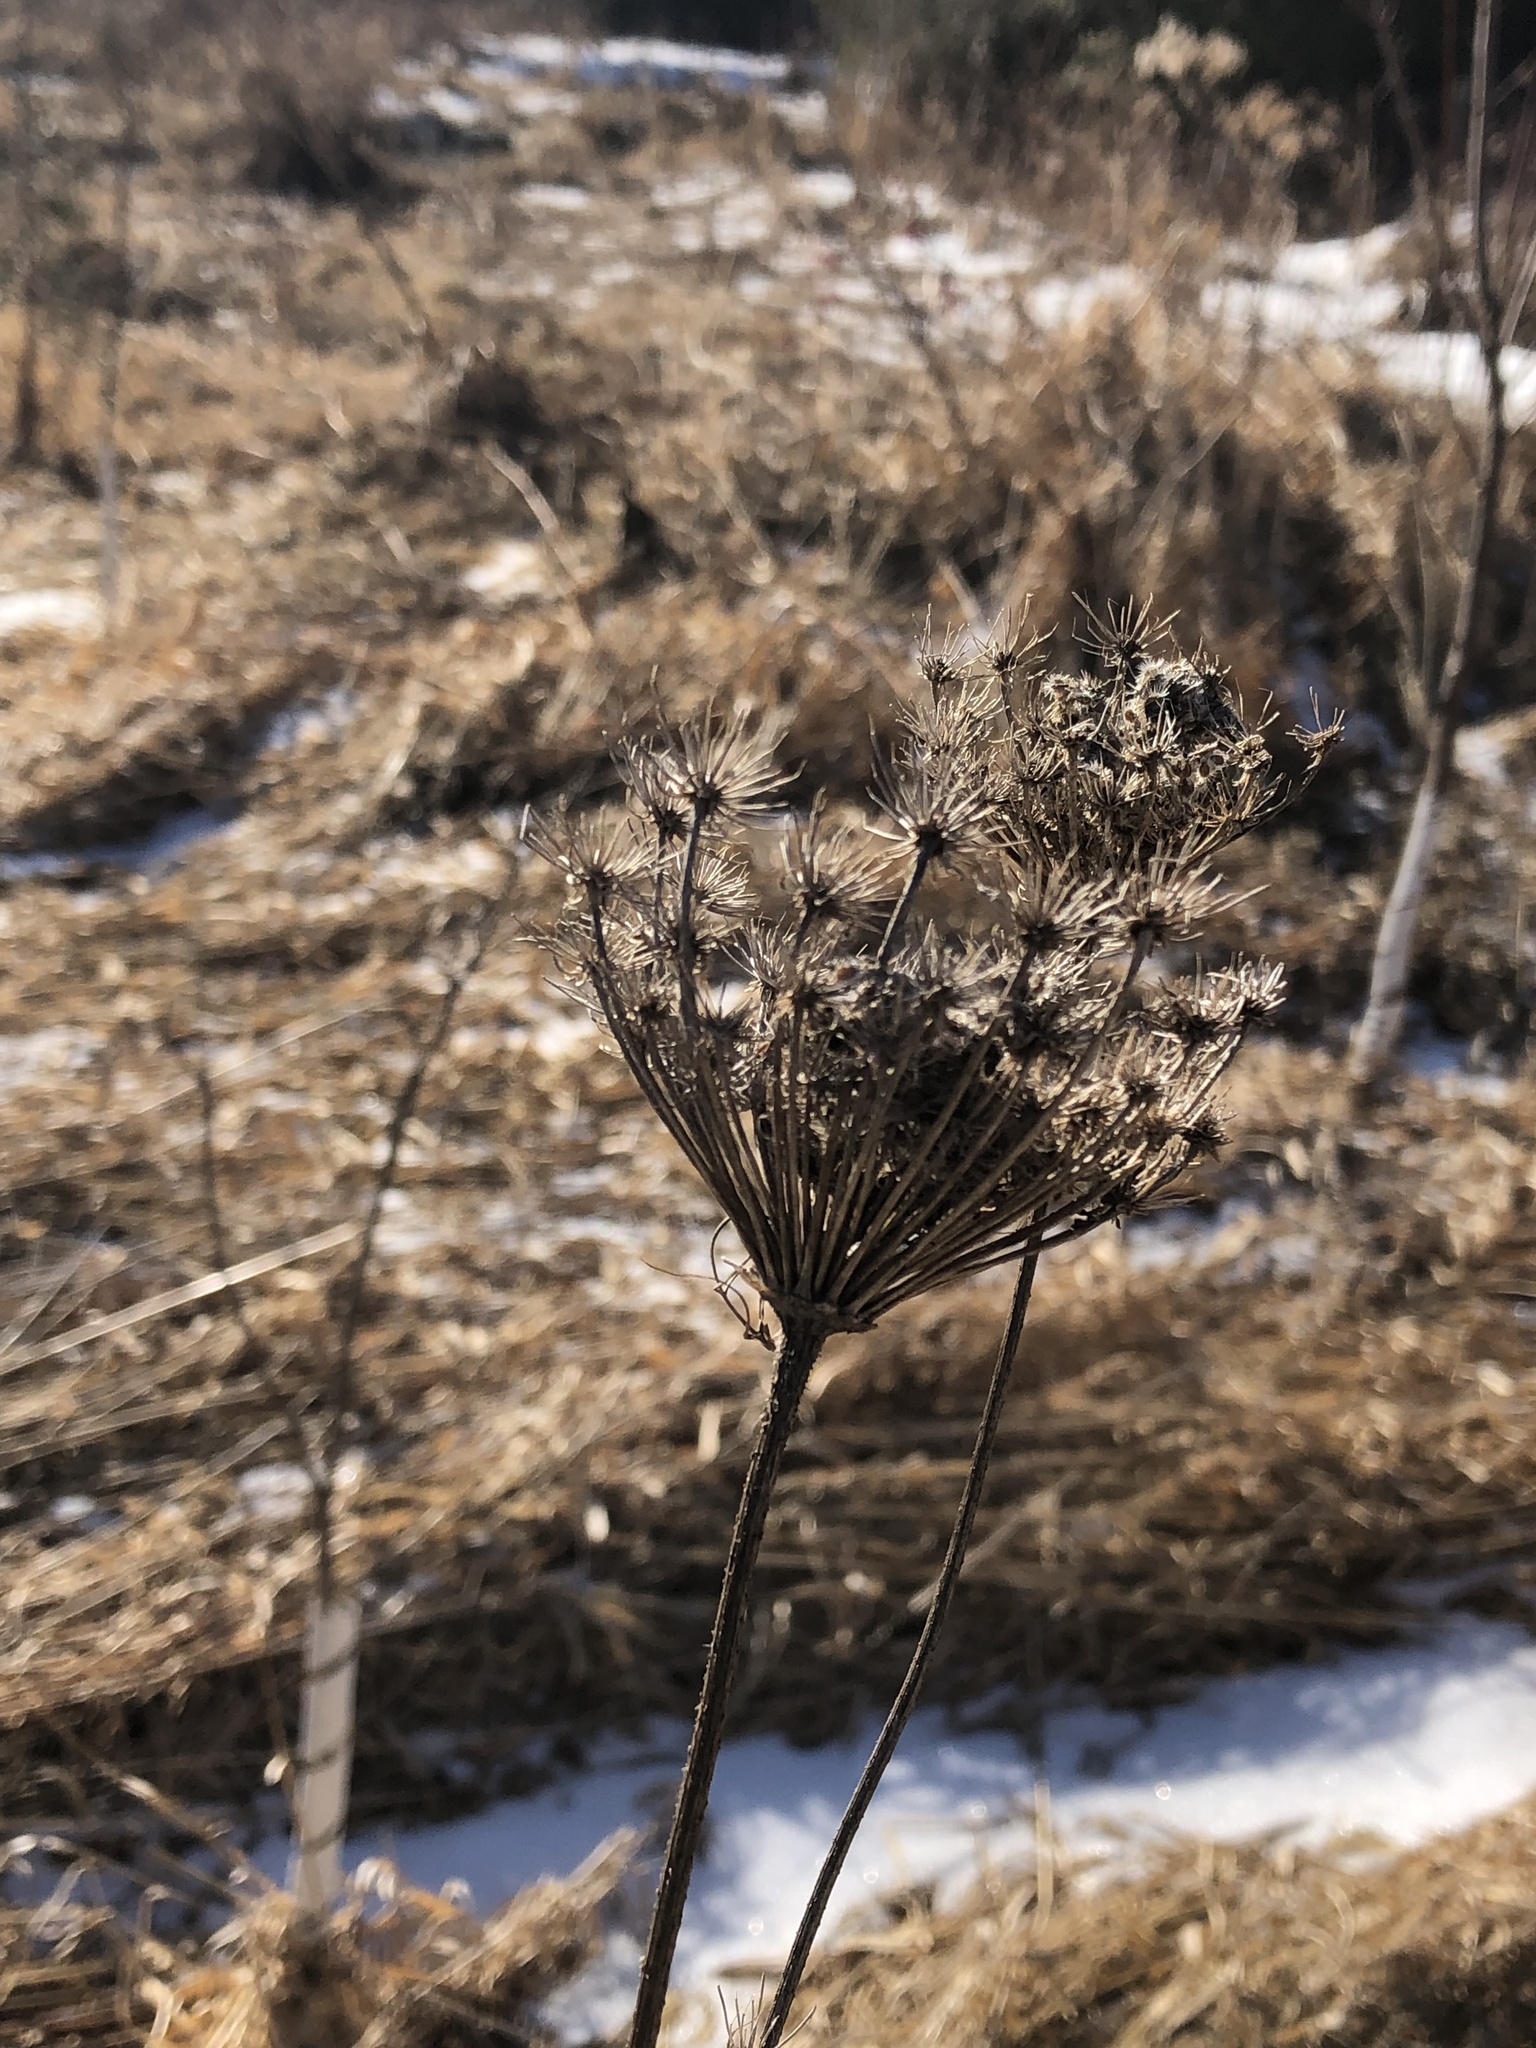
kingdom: Plantae
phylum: Tracheophyta
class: Magnoliopsida
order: Apiales
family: Apiaceae
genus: Daucus
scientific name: Daucus carota
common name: Wild carrot
